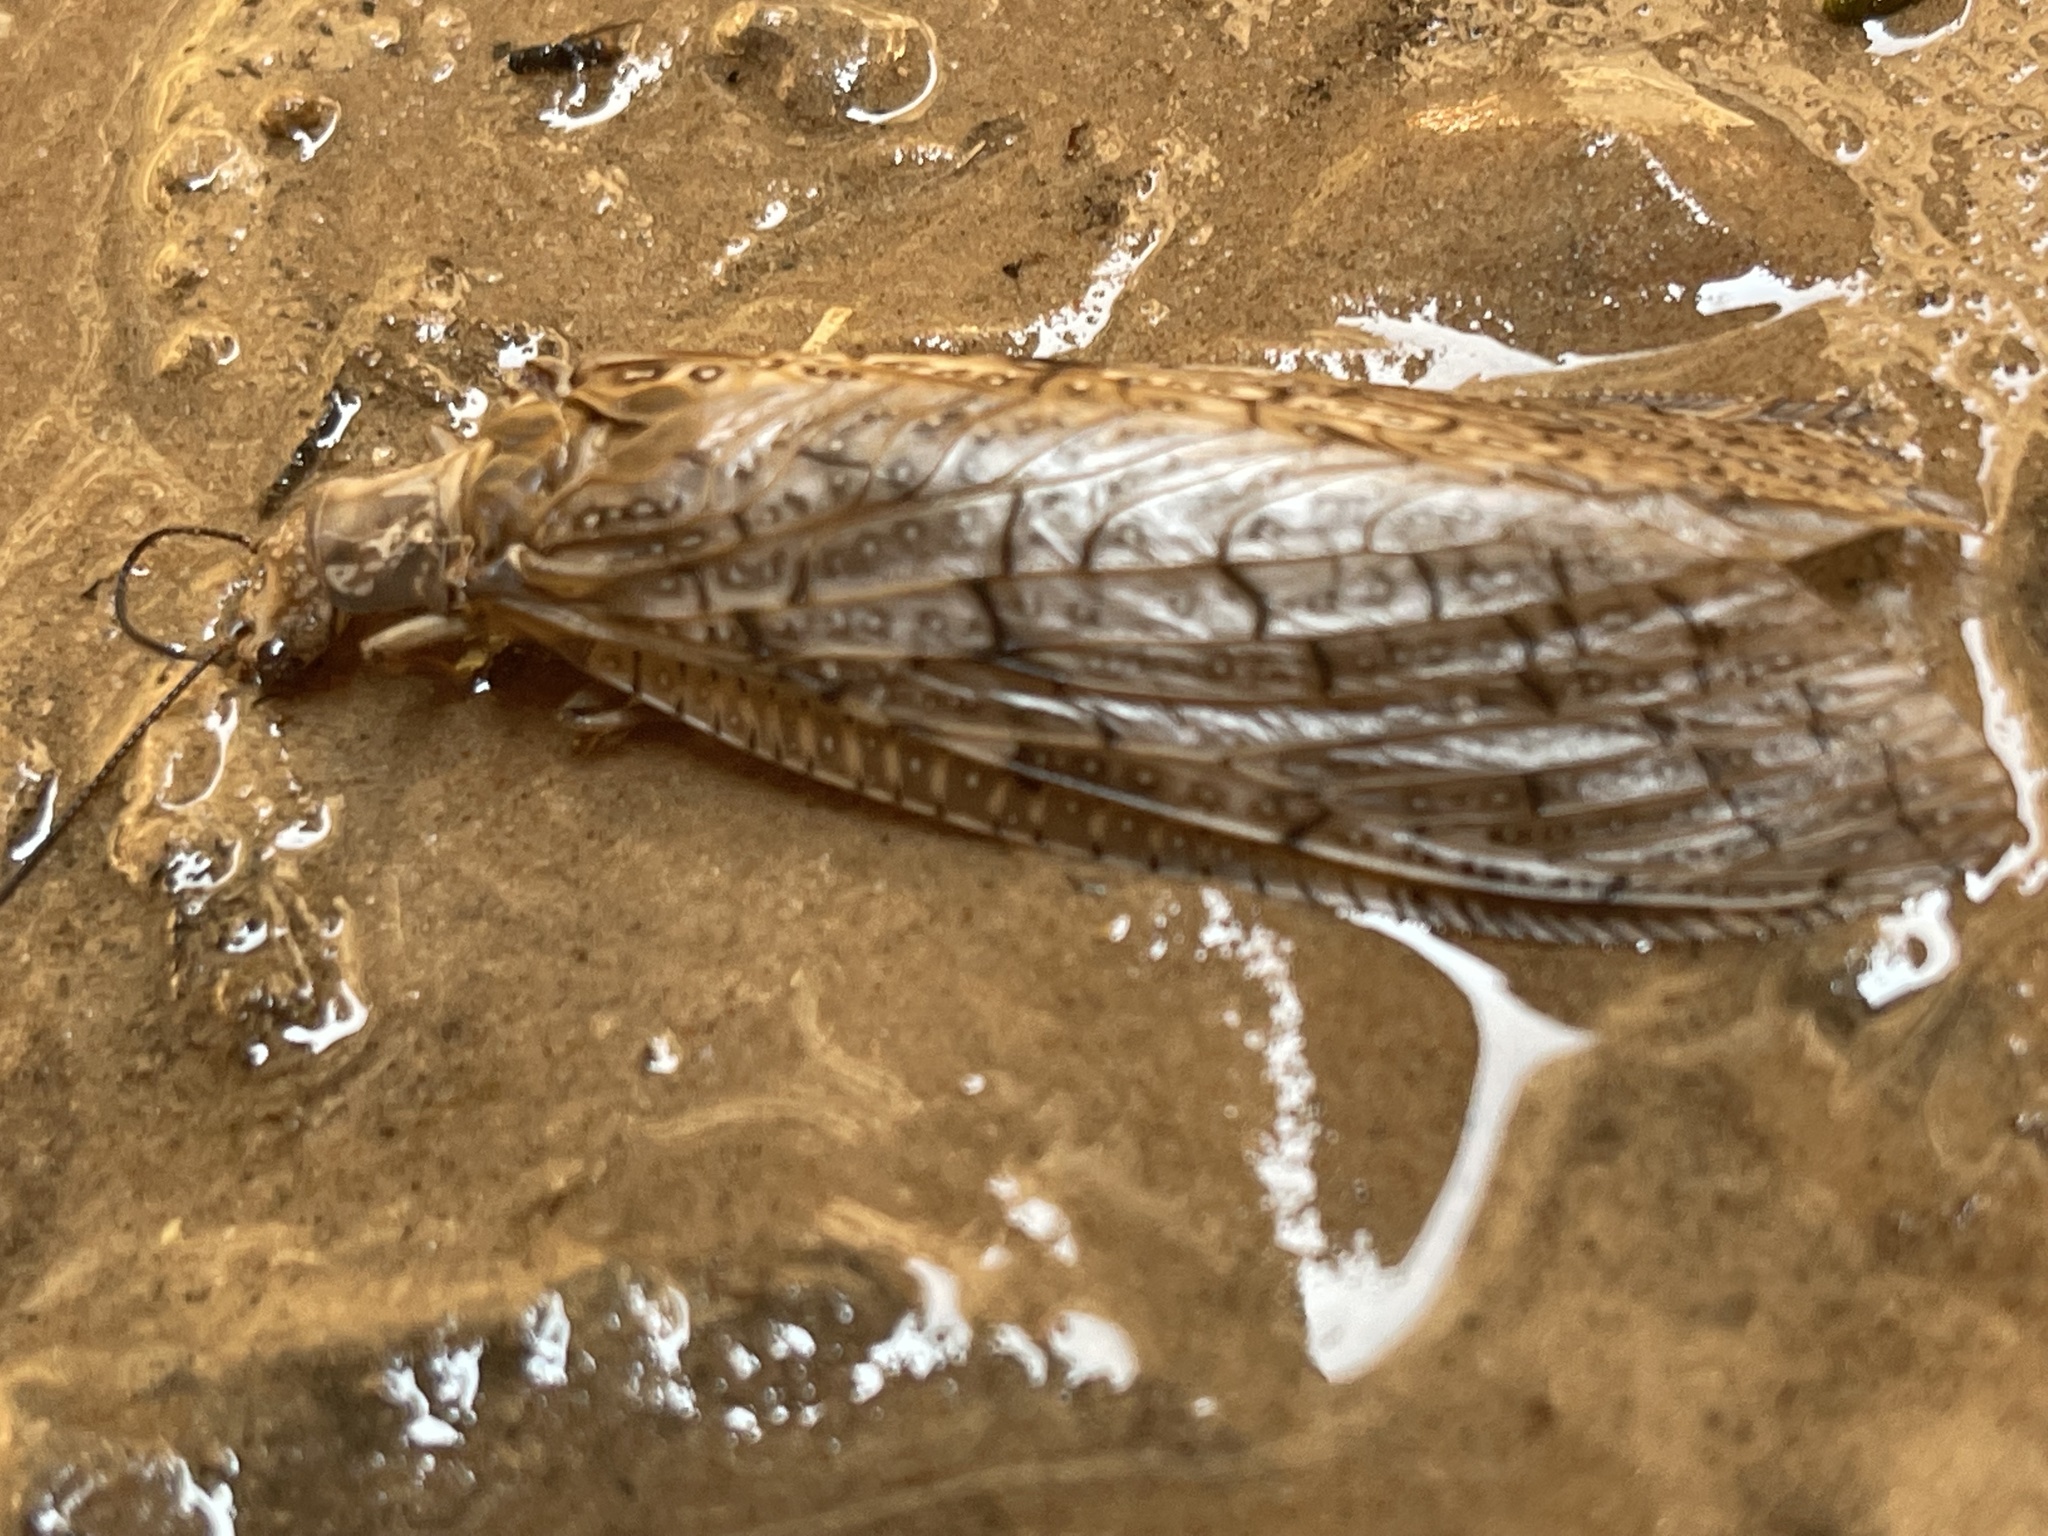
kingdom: Animalia
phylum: Arthropoda
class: Insecta
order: Megaloptera
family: Corydalidae
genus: Corydalus
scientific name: Corydalus texanus
